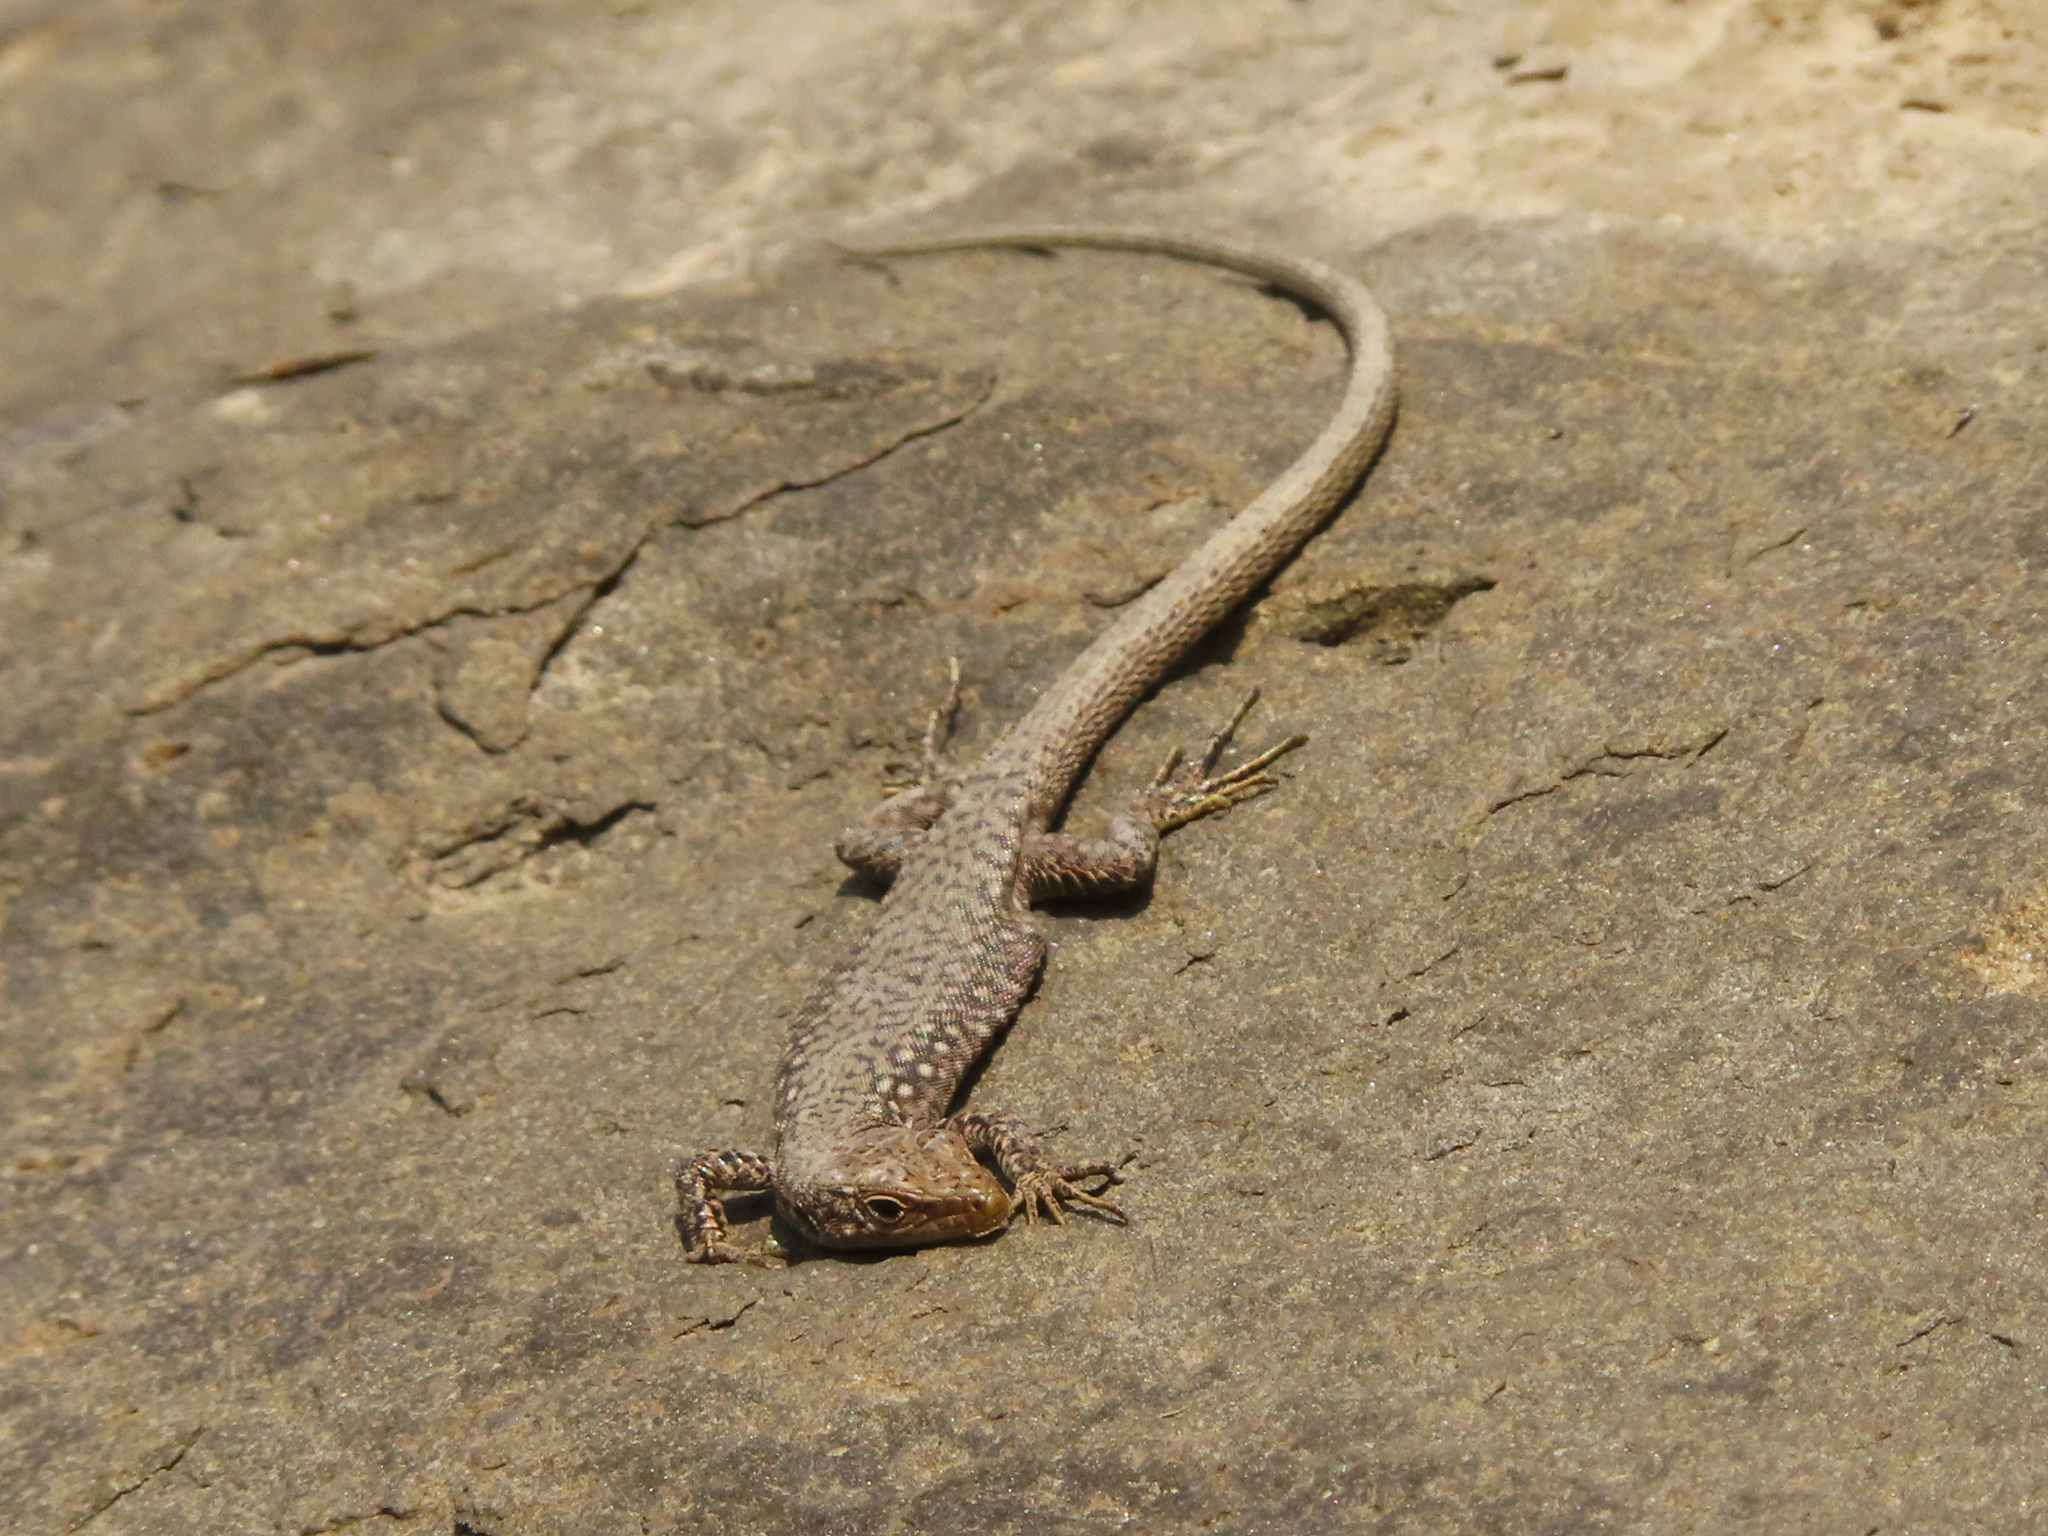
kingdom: Animalia
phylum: Chordata
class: Squamata
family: Lacertidae
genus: Darevskia
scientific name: Darevskia
